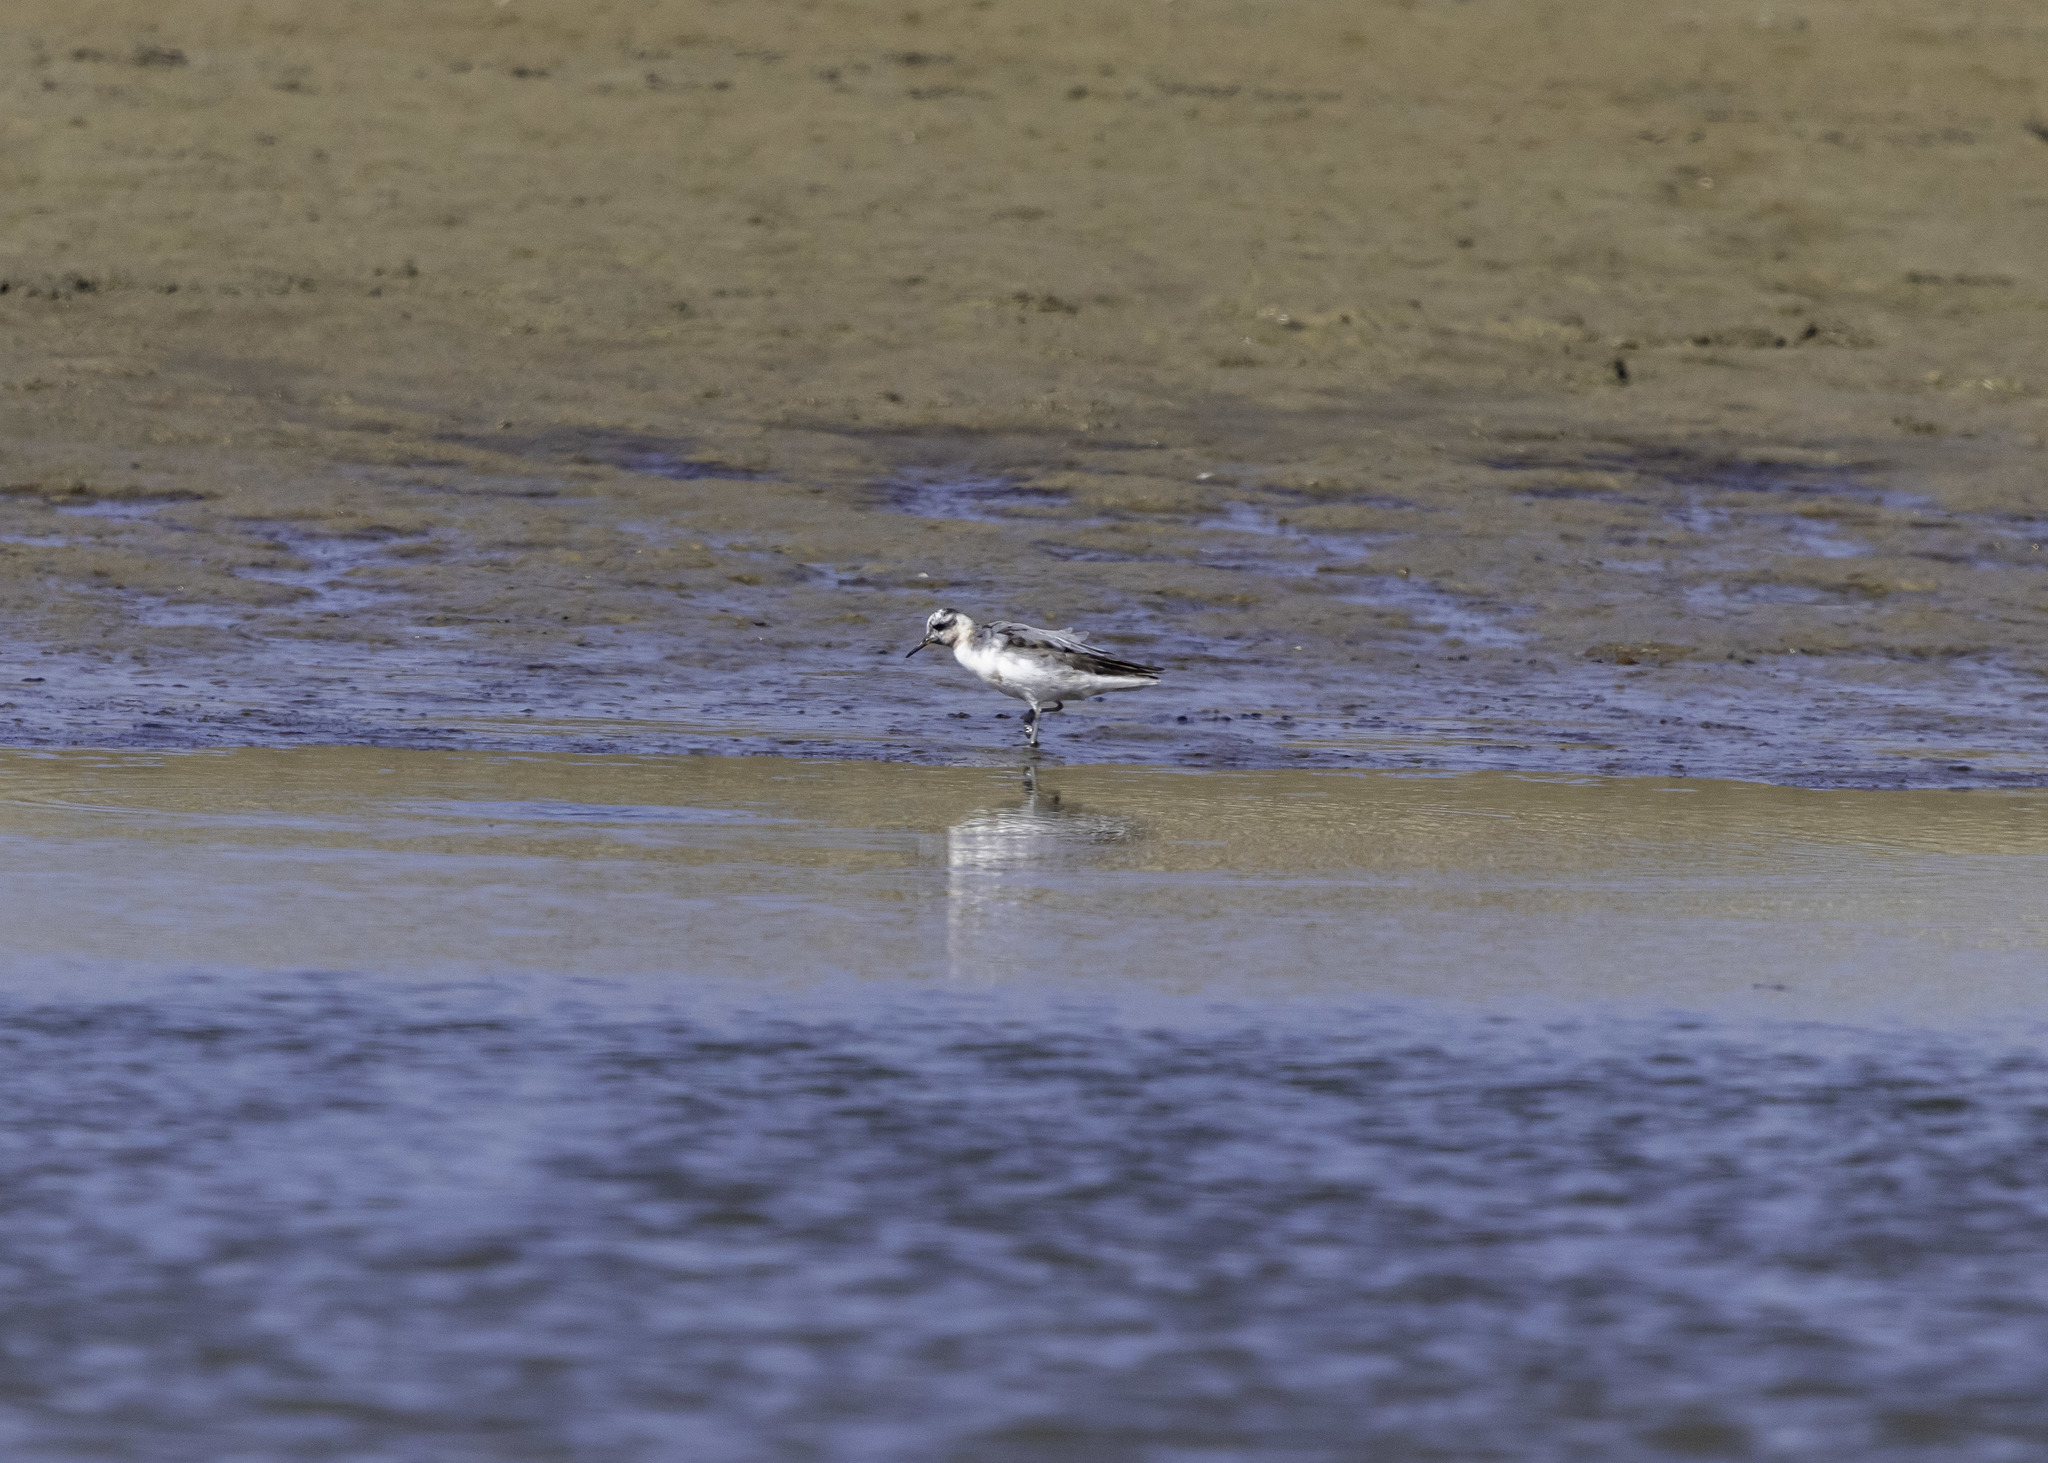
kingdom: Animalia
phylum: Chordata
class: Aves
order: Charadriiformes
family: Scolopacidae
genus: Phalaropus
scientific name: Phalaropus fulicarius
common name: Red phalarope
